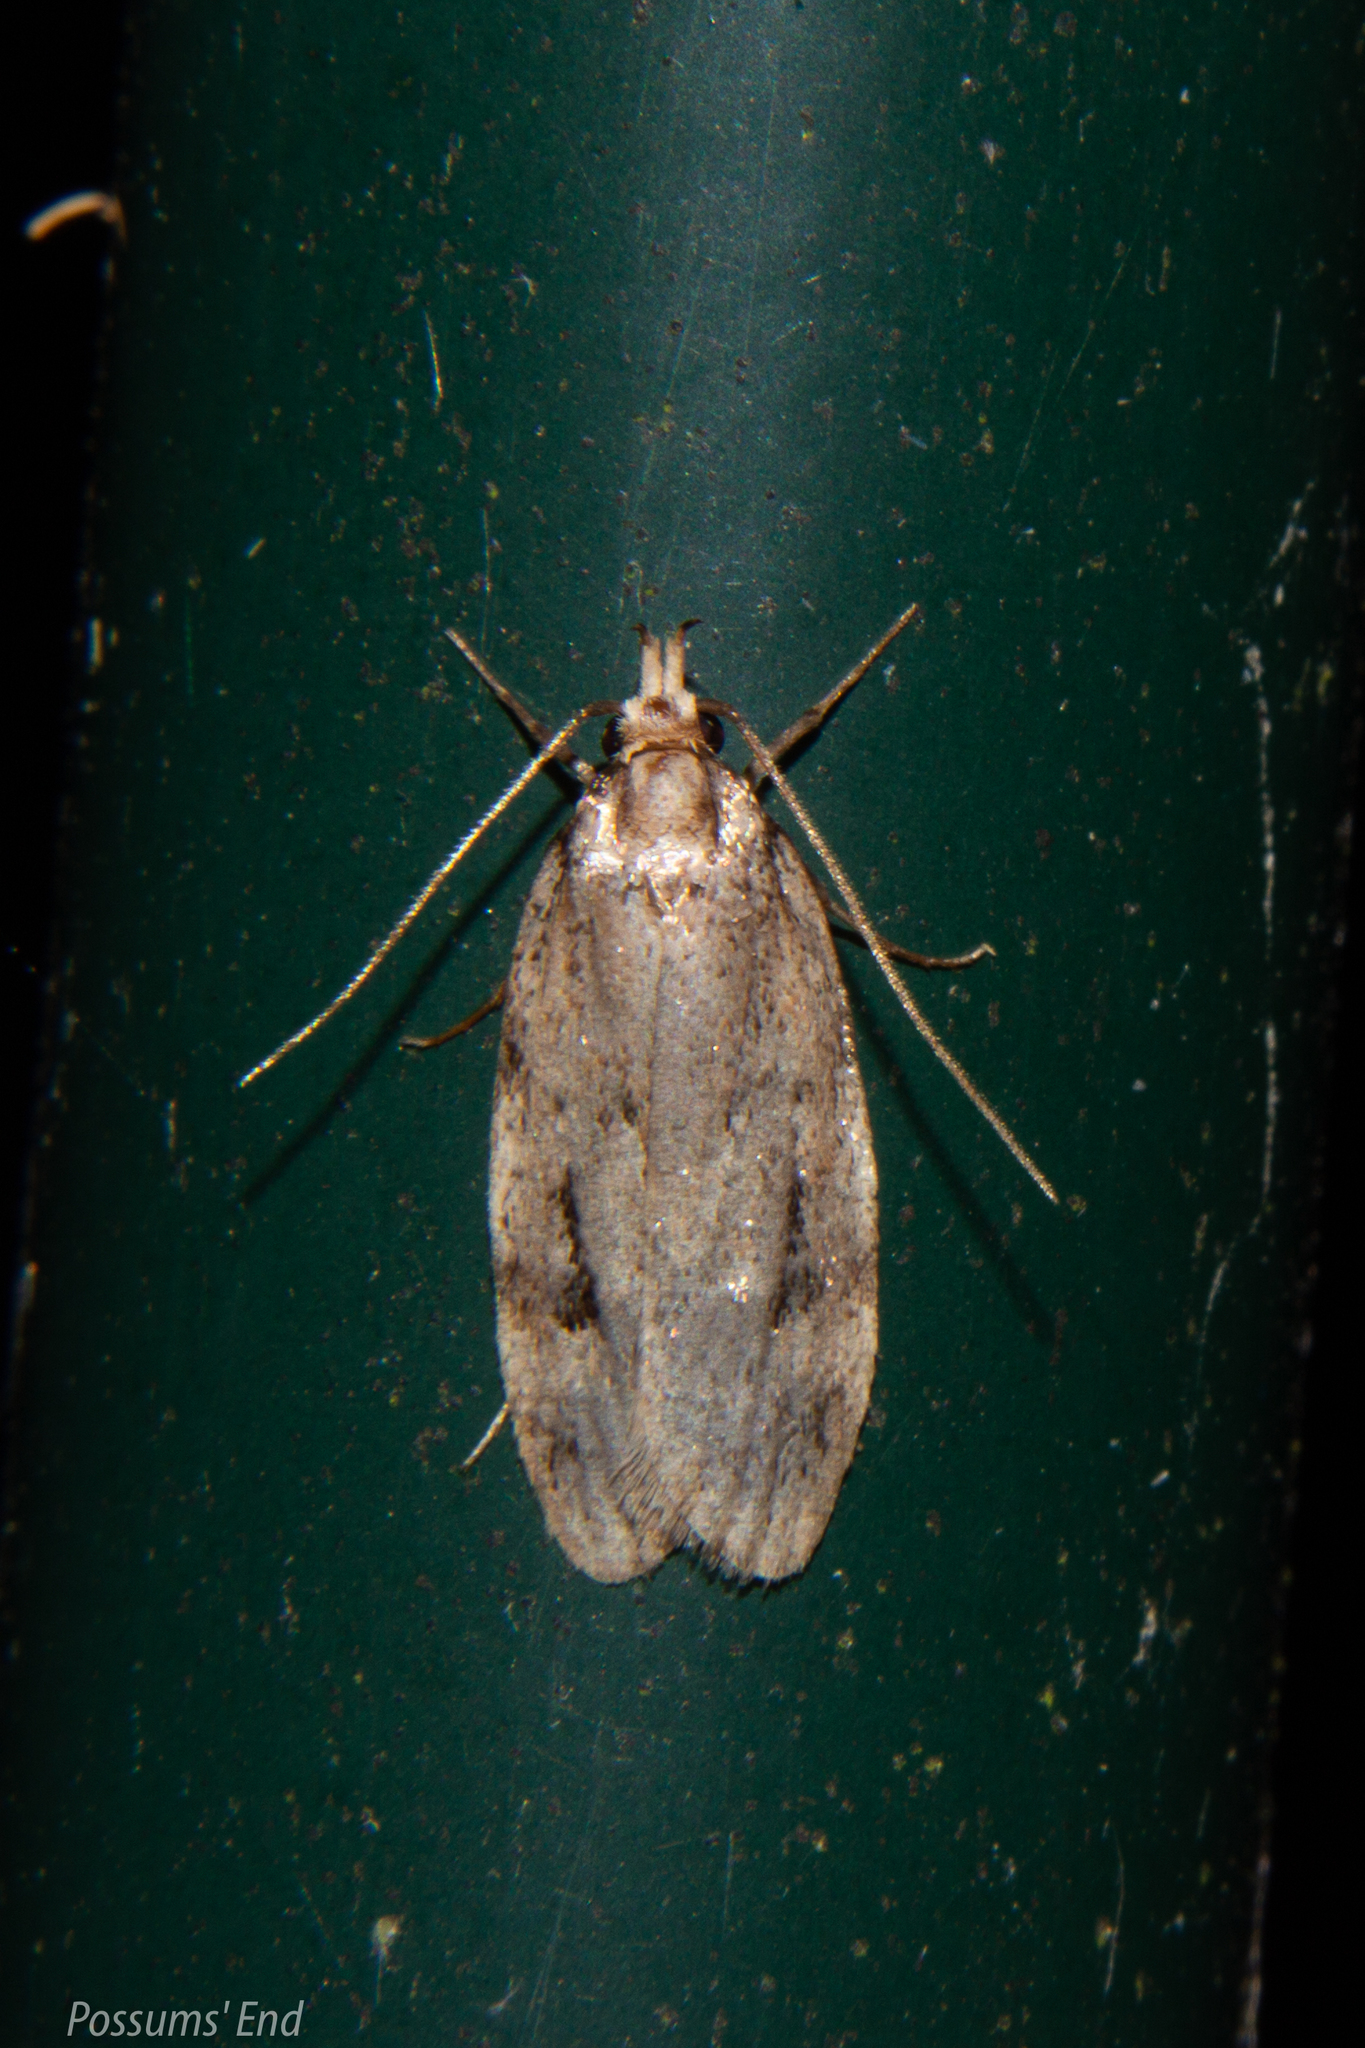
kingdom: Animalia
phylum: Arthropoda
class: Insecta
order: Lepidoptera
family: Oecophoridae
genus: Barea
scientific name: Barea exarcha
